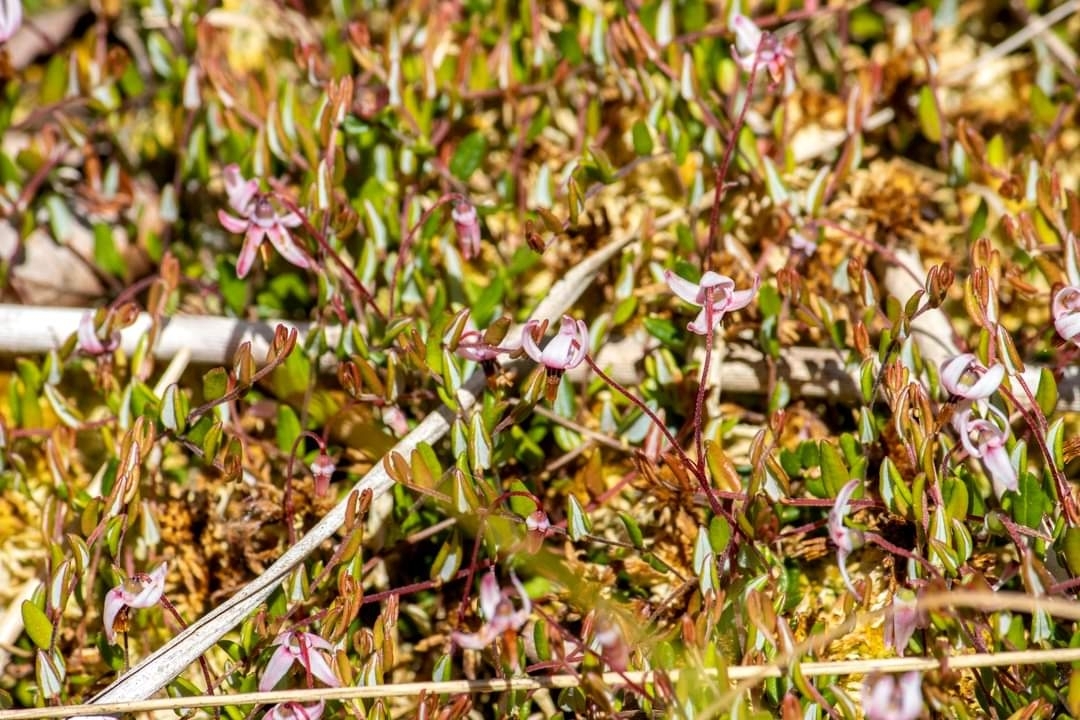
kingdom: Plantae
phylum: Tracheophyta
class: Magnoliopsida
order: Ericales
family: Ericaceae
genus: Vaccinium
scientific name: Vaccinium oxycoccos
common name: Cranberry
